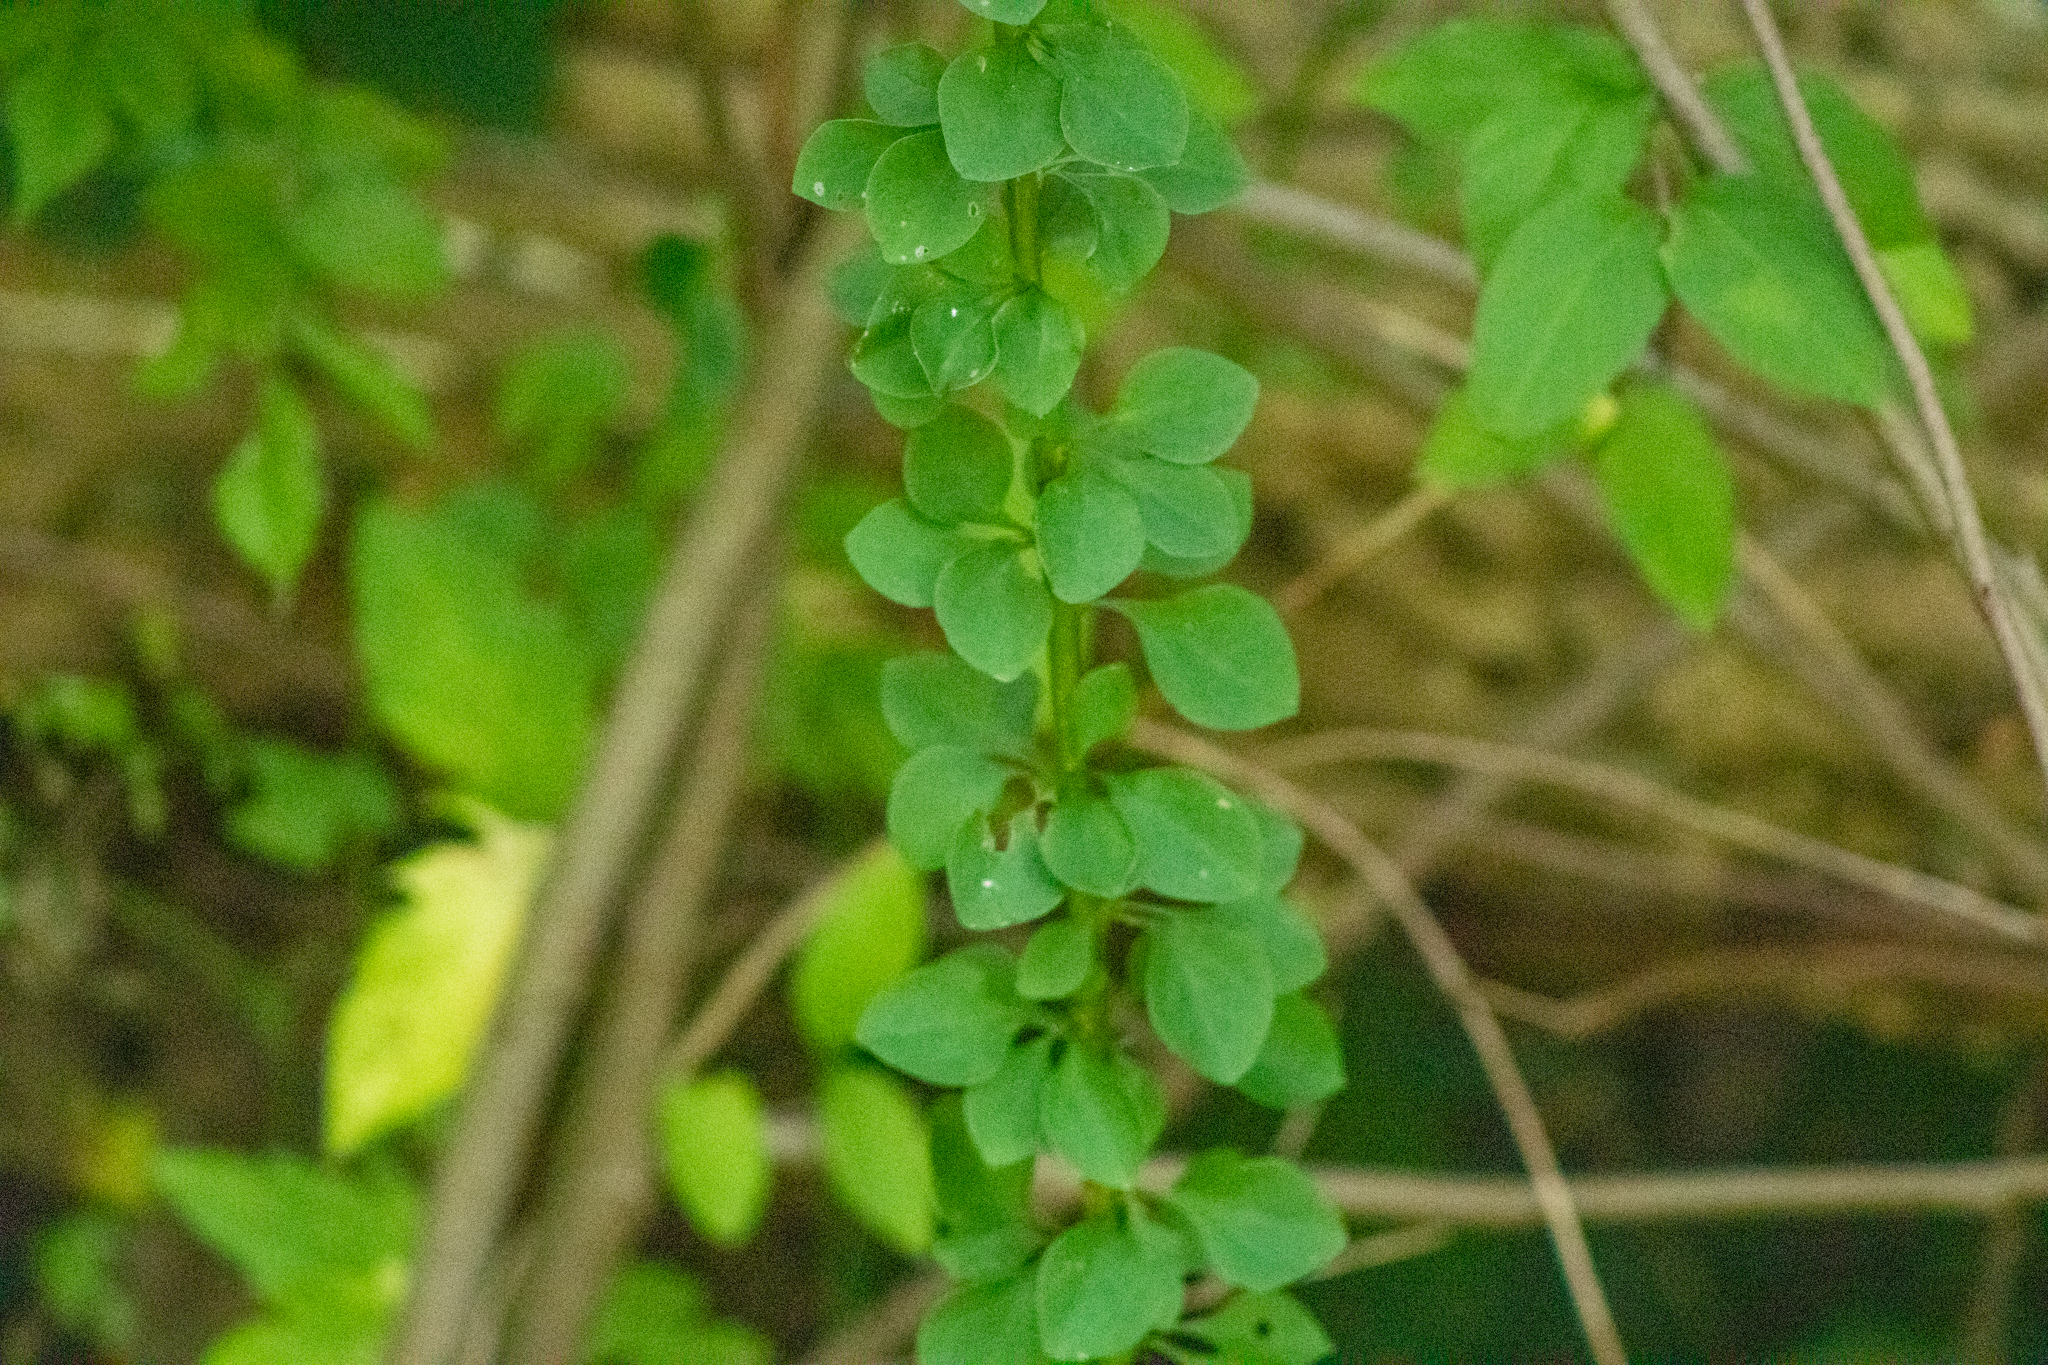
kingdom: Plantae
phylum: Tracheophyta
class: Magnoliopsida
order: Ranunculales
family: Berberidaceae
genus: Berberis
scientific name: Berberis thunbergii
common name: Japanese barberry
